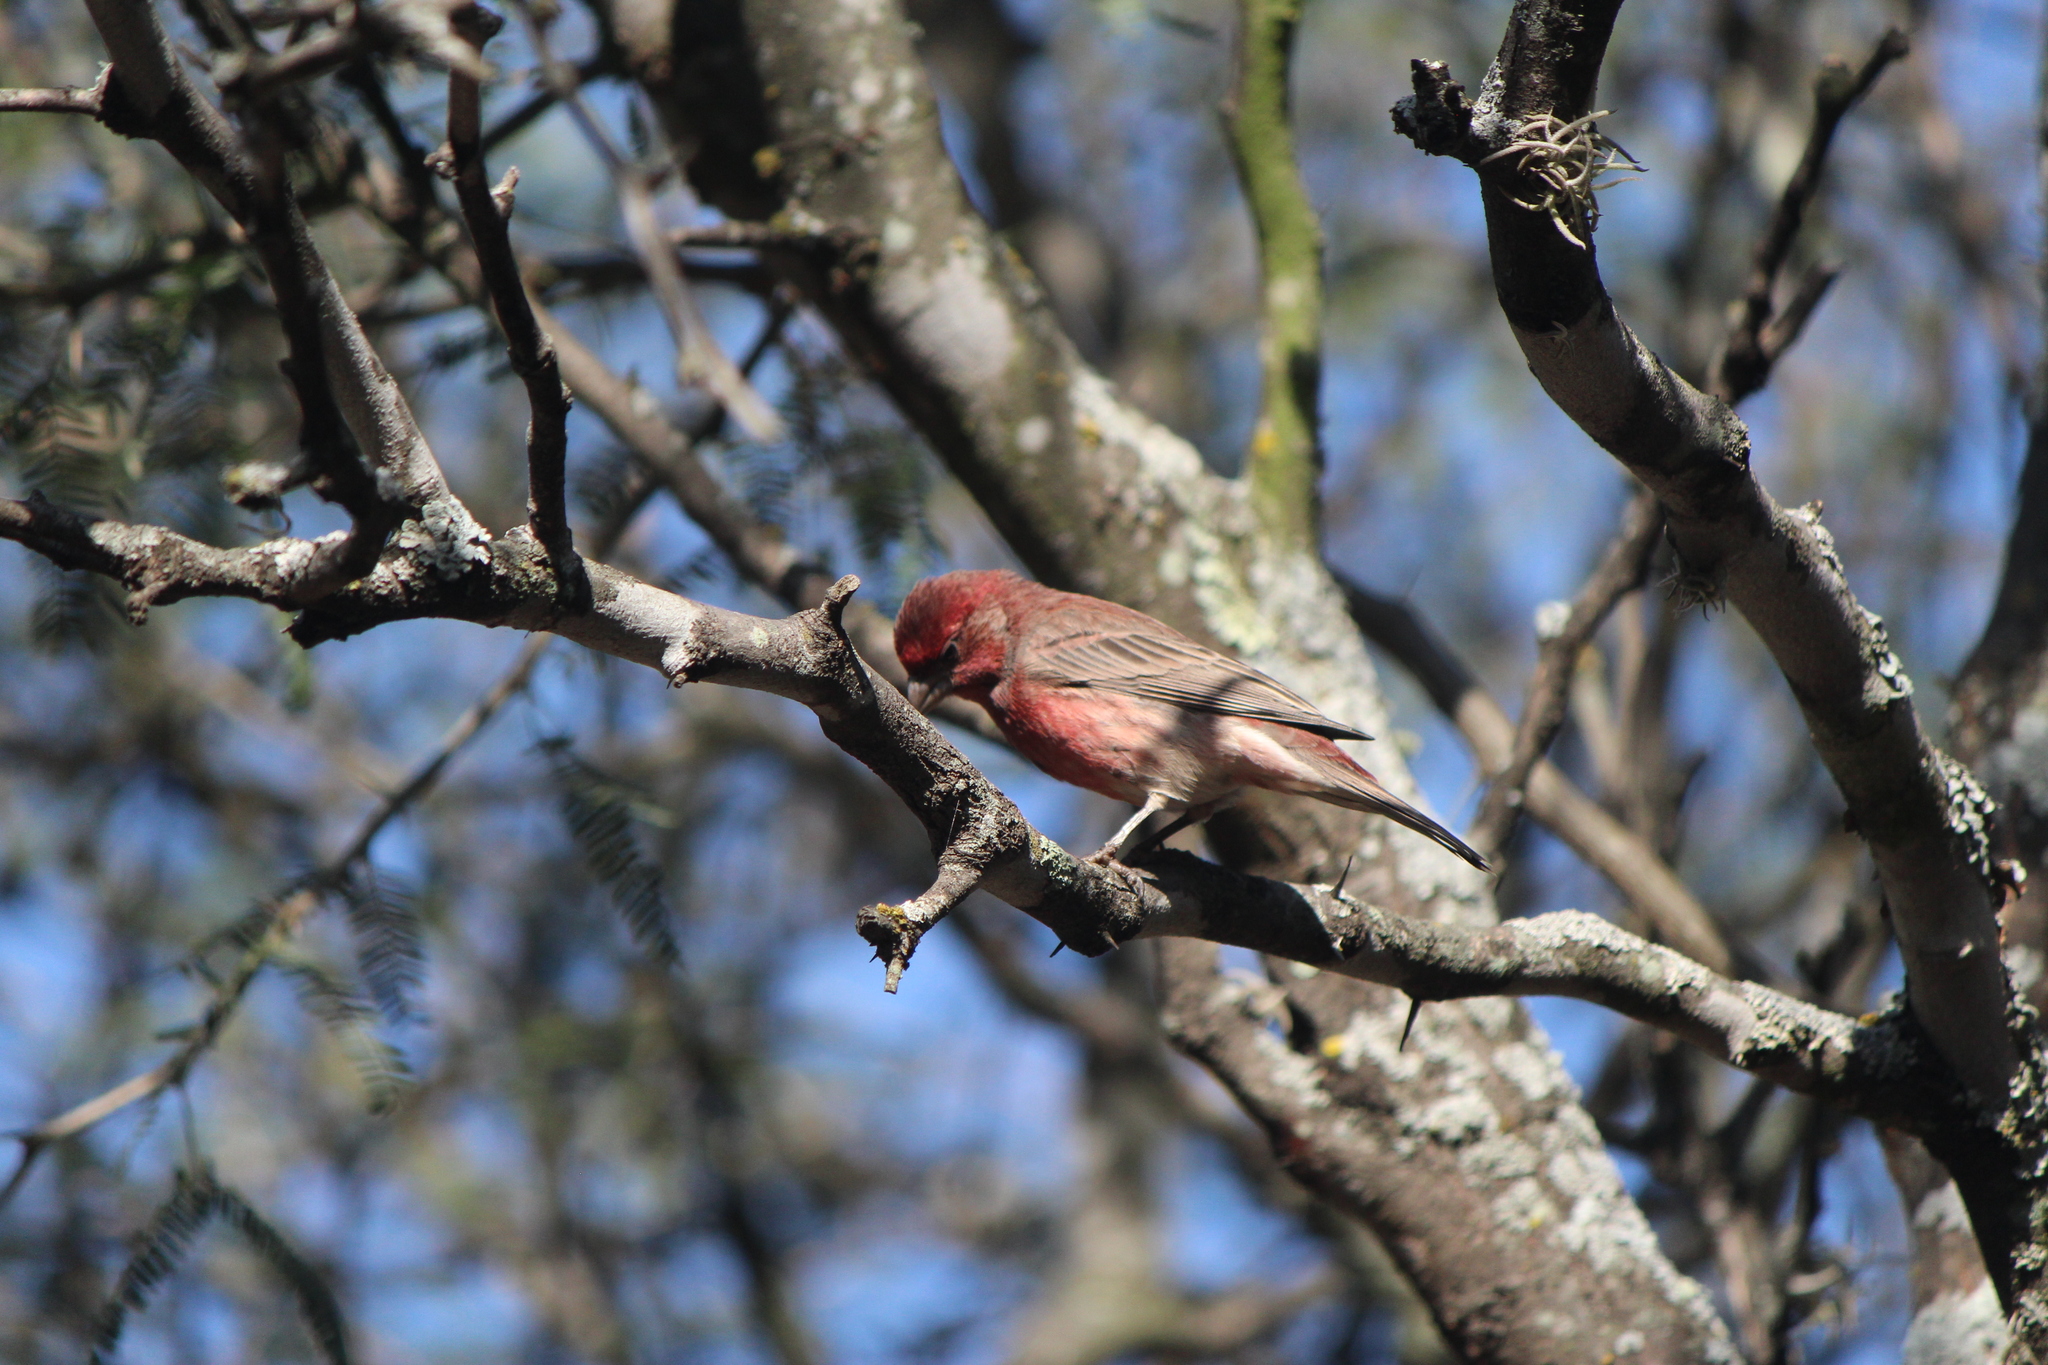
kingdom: Animalia
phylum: Chordata
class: Aves
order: Passeriformes
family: Fringillidae
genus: Haemorhous
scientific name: Haemorhous mexicanus
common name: House finch
